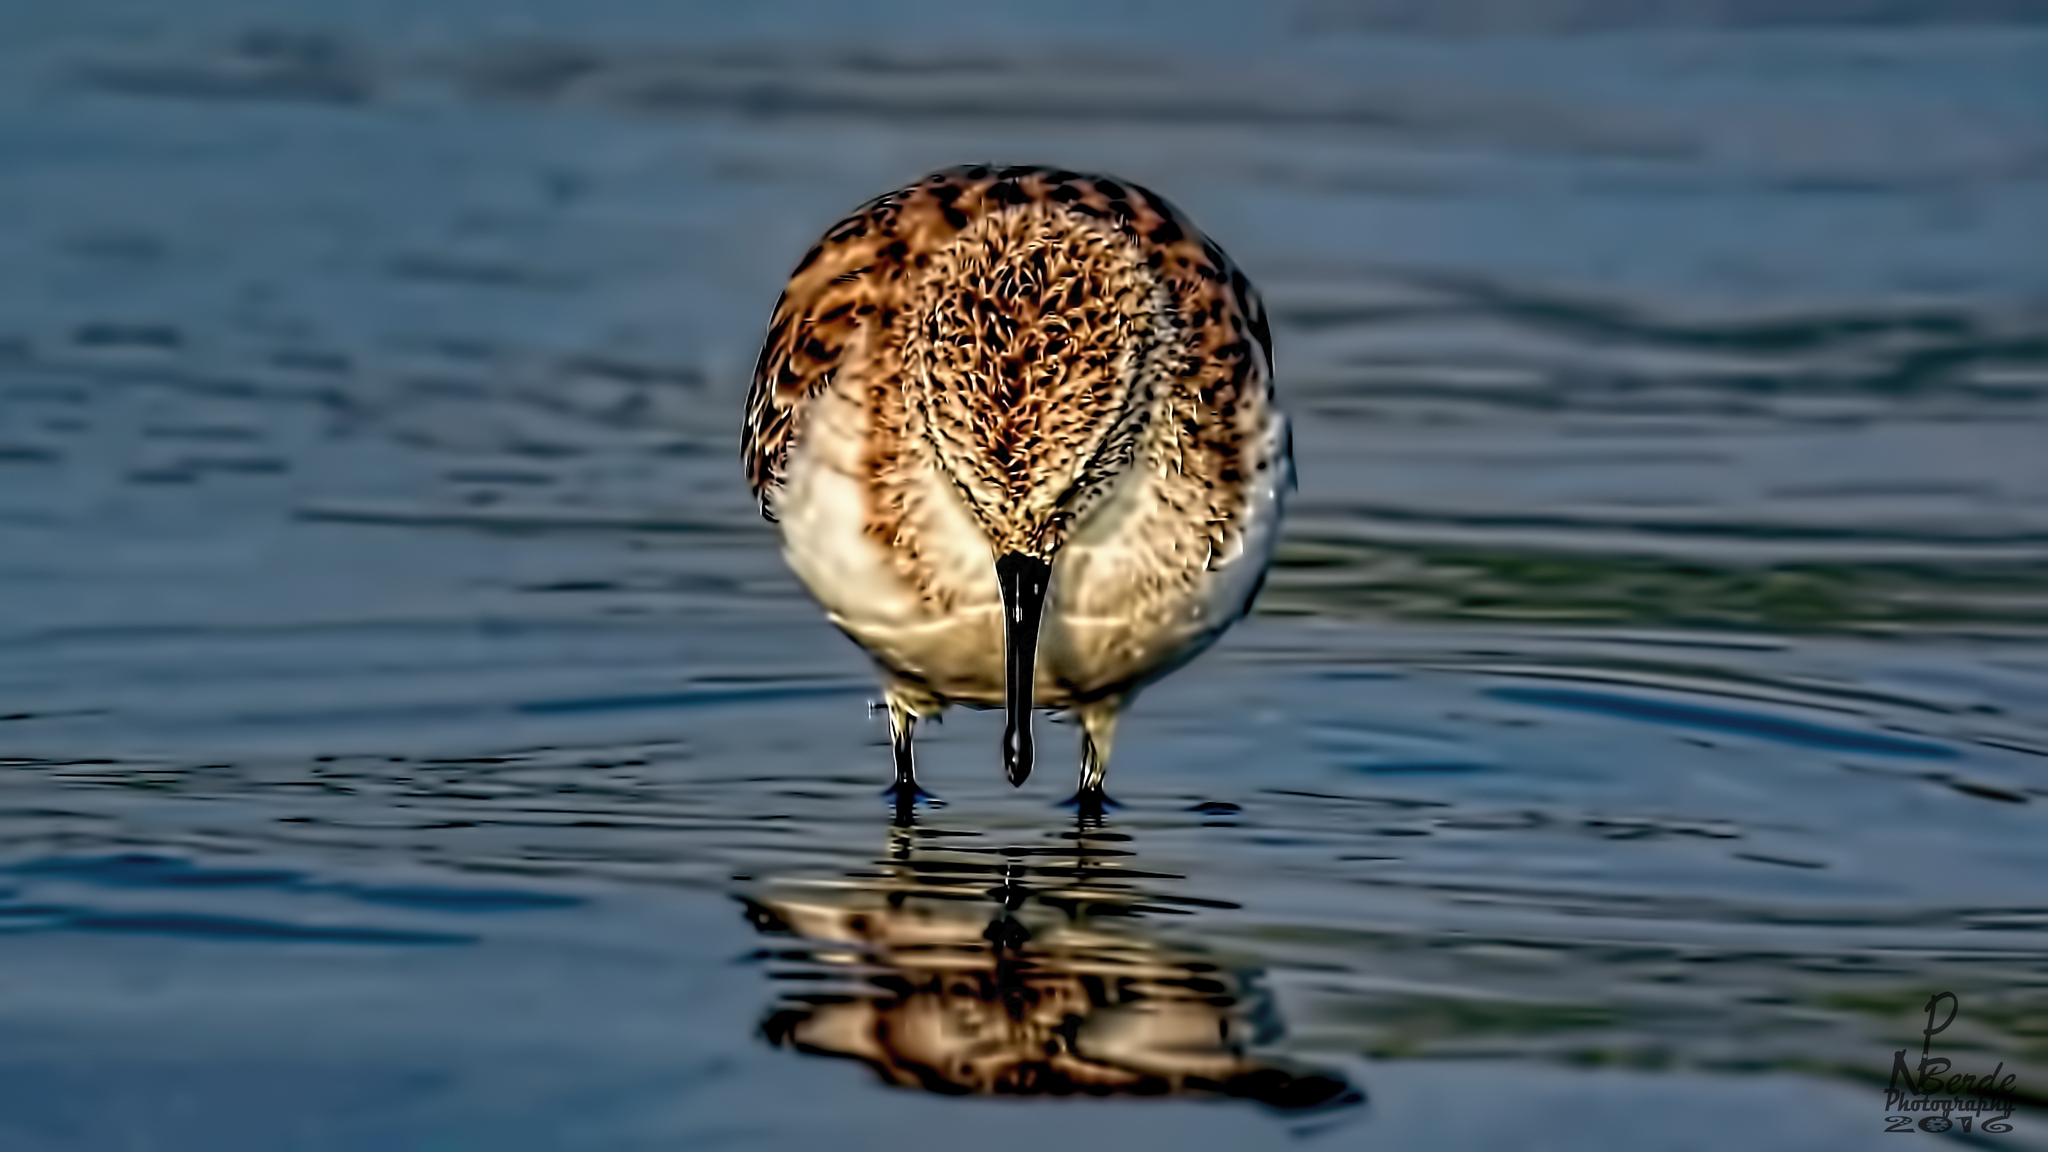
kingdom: Animalia
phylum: Chordata
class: Aves
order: Charadriiformes
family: Scolopacidae
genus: Calidris
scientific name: Calidris falcinellus
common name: Broad-billed sandpiper
